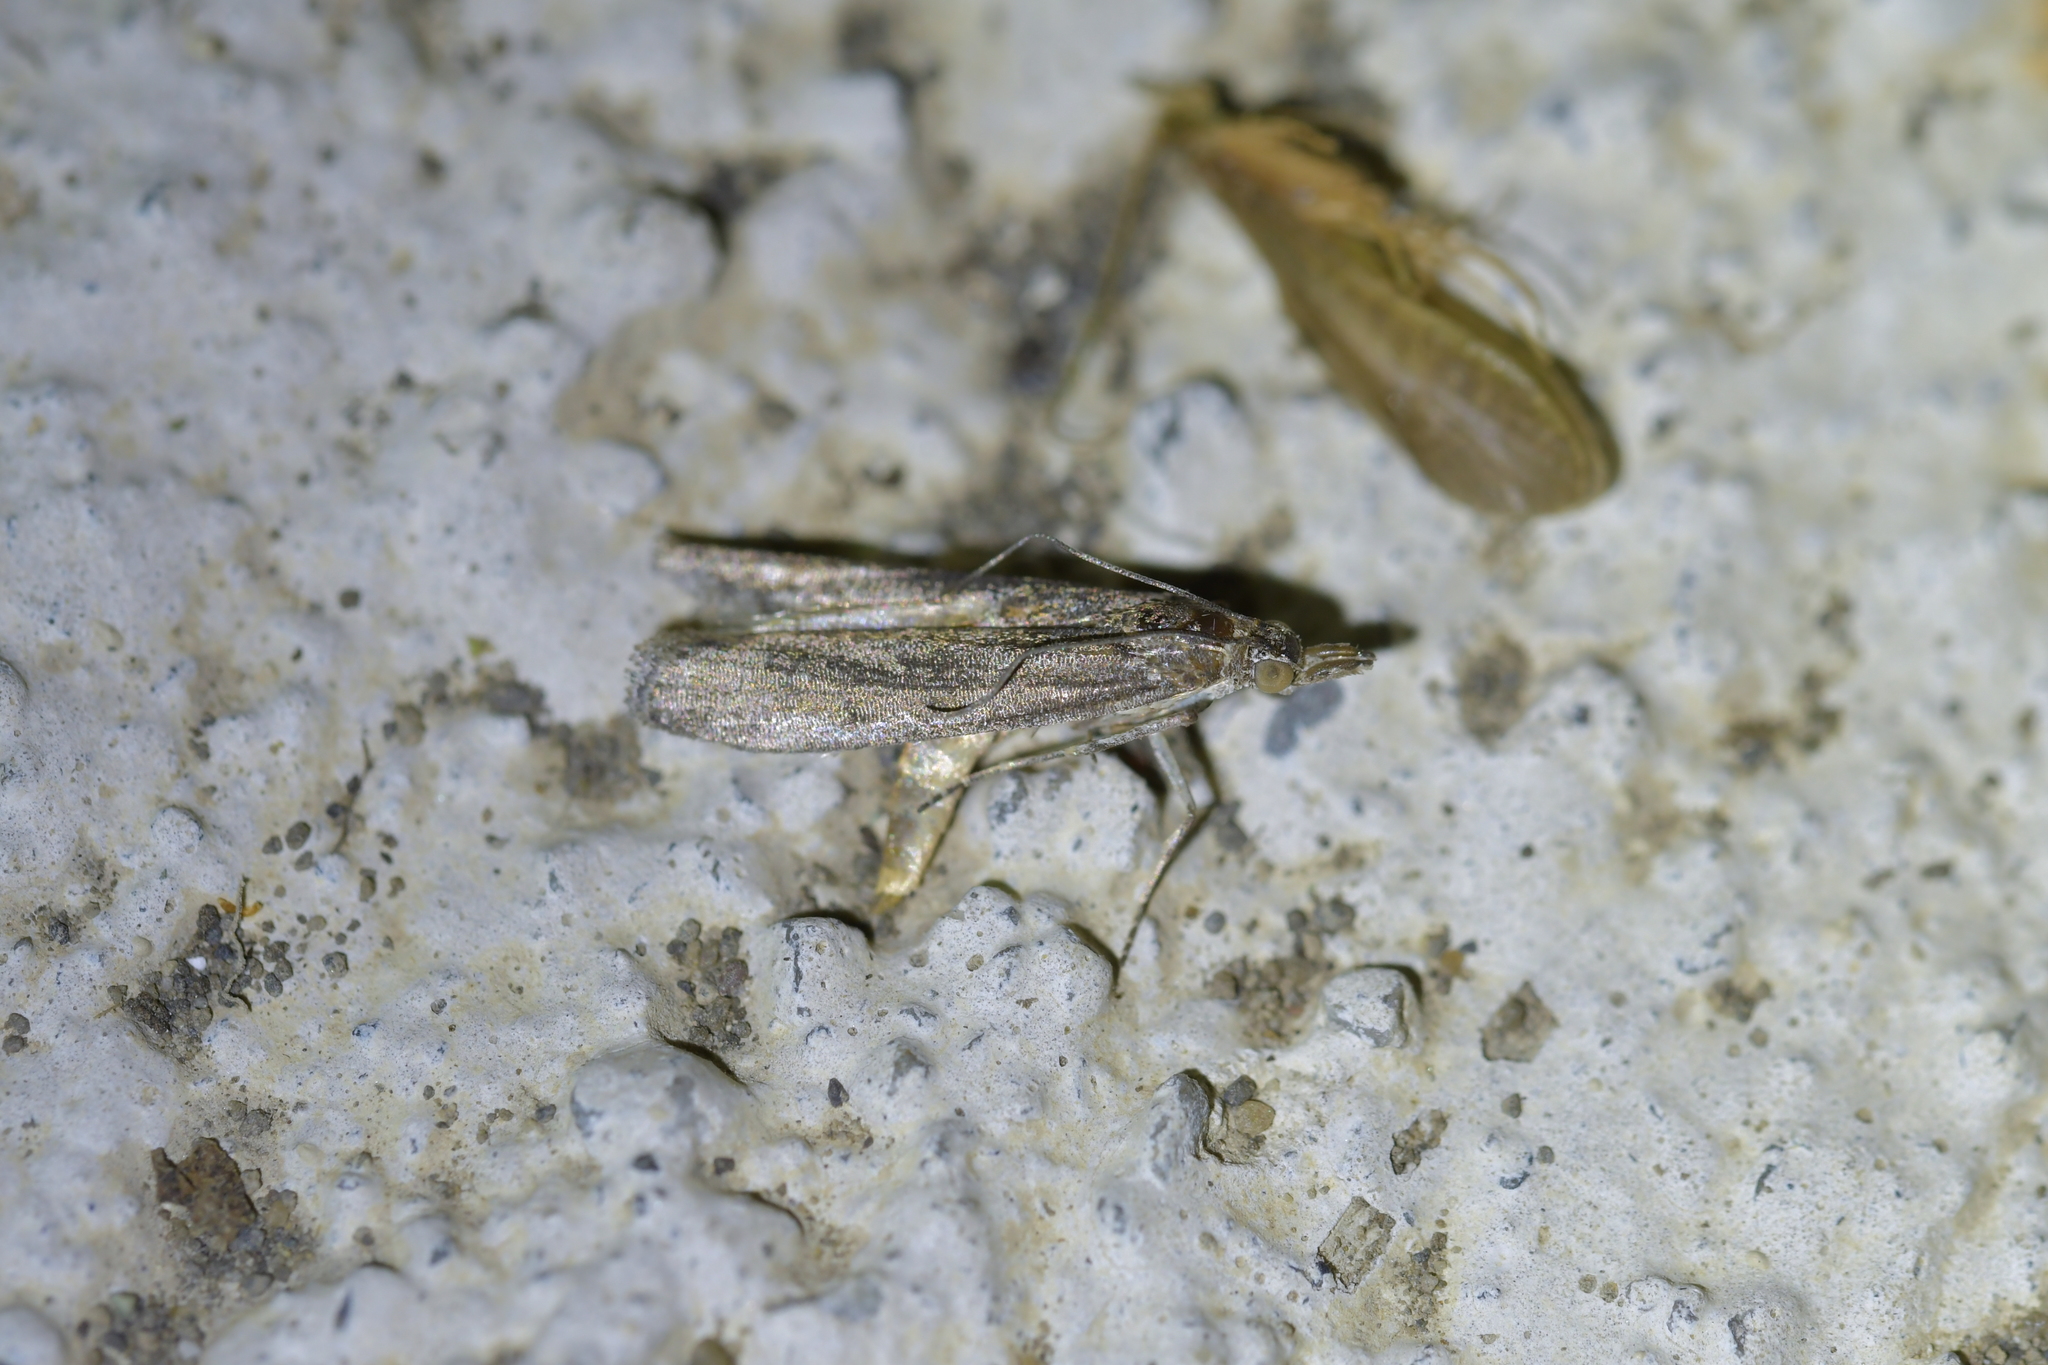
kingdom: Animalia
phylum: Arthropoda
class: Insecta
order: Lepidoptera
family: Crambidae
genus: Eudonia
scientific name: Eudonia leptalea
